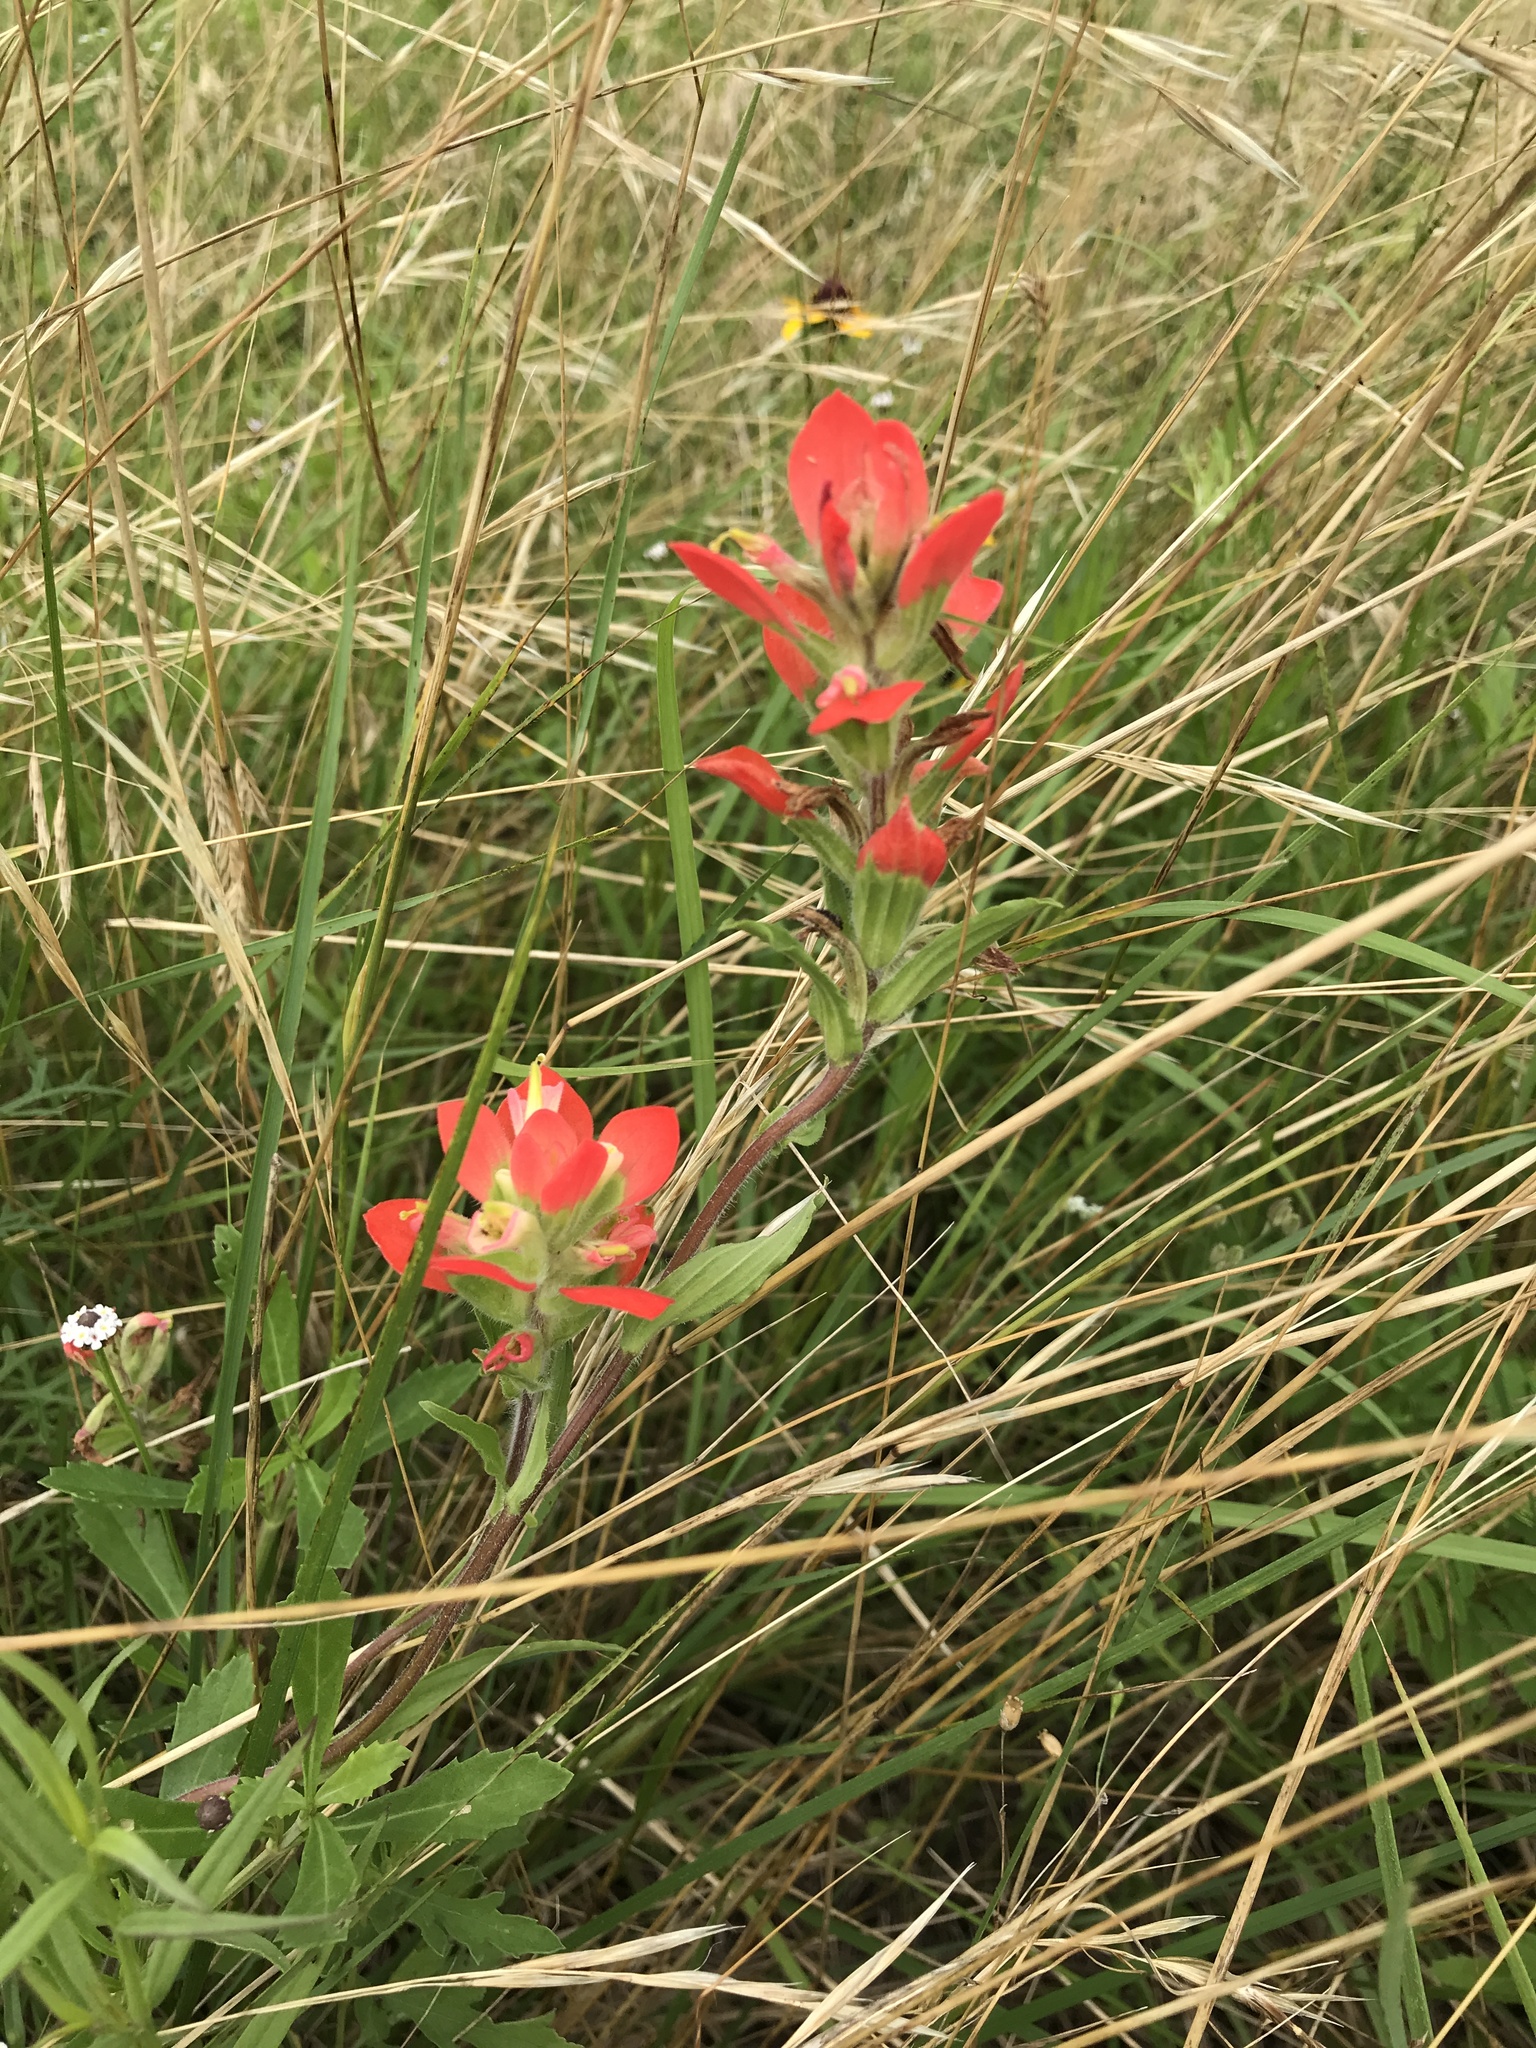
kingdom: Plantae
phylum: Tracheophyta
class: Magnoliopsida
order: Lamiales
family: Orobanchaceae
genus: Castilleja
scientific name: Castilleja indivisa
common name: Texas paintbrush
